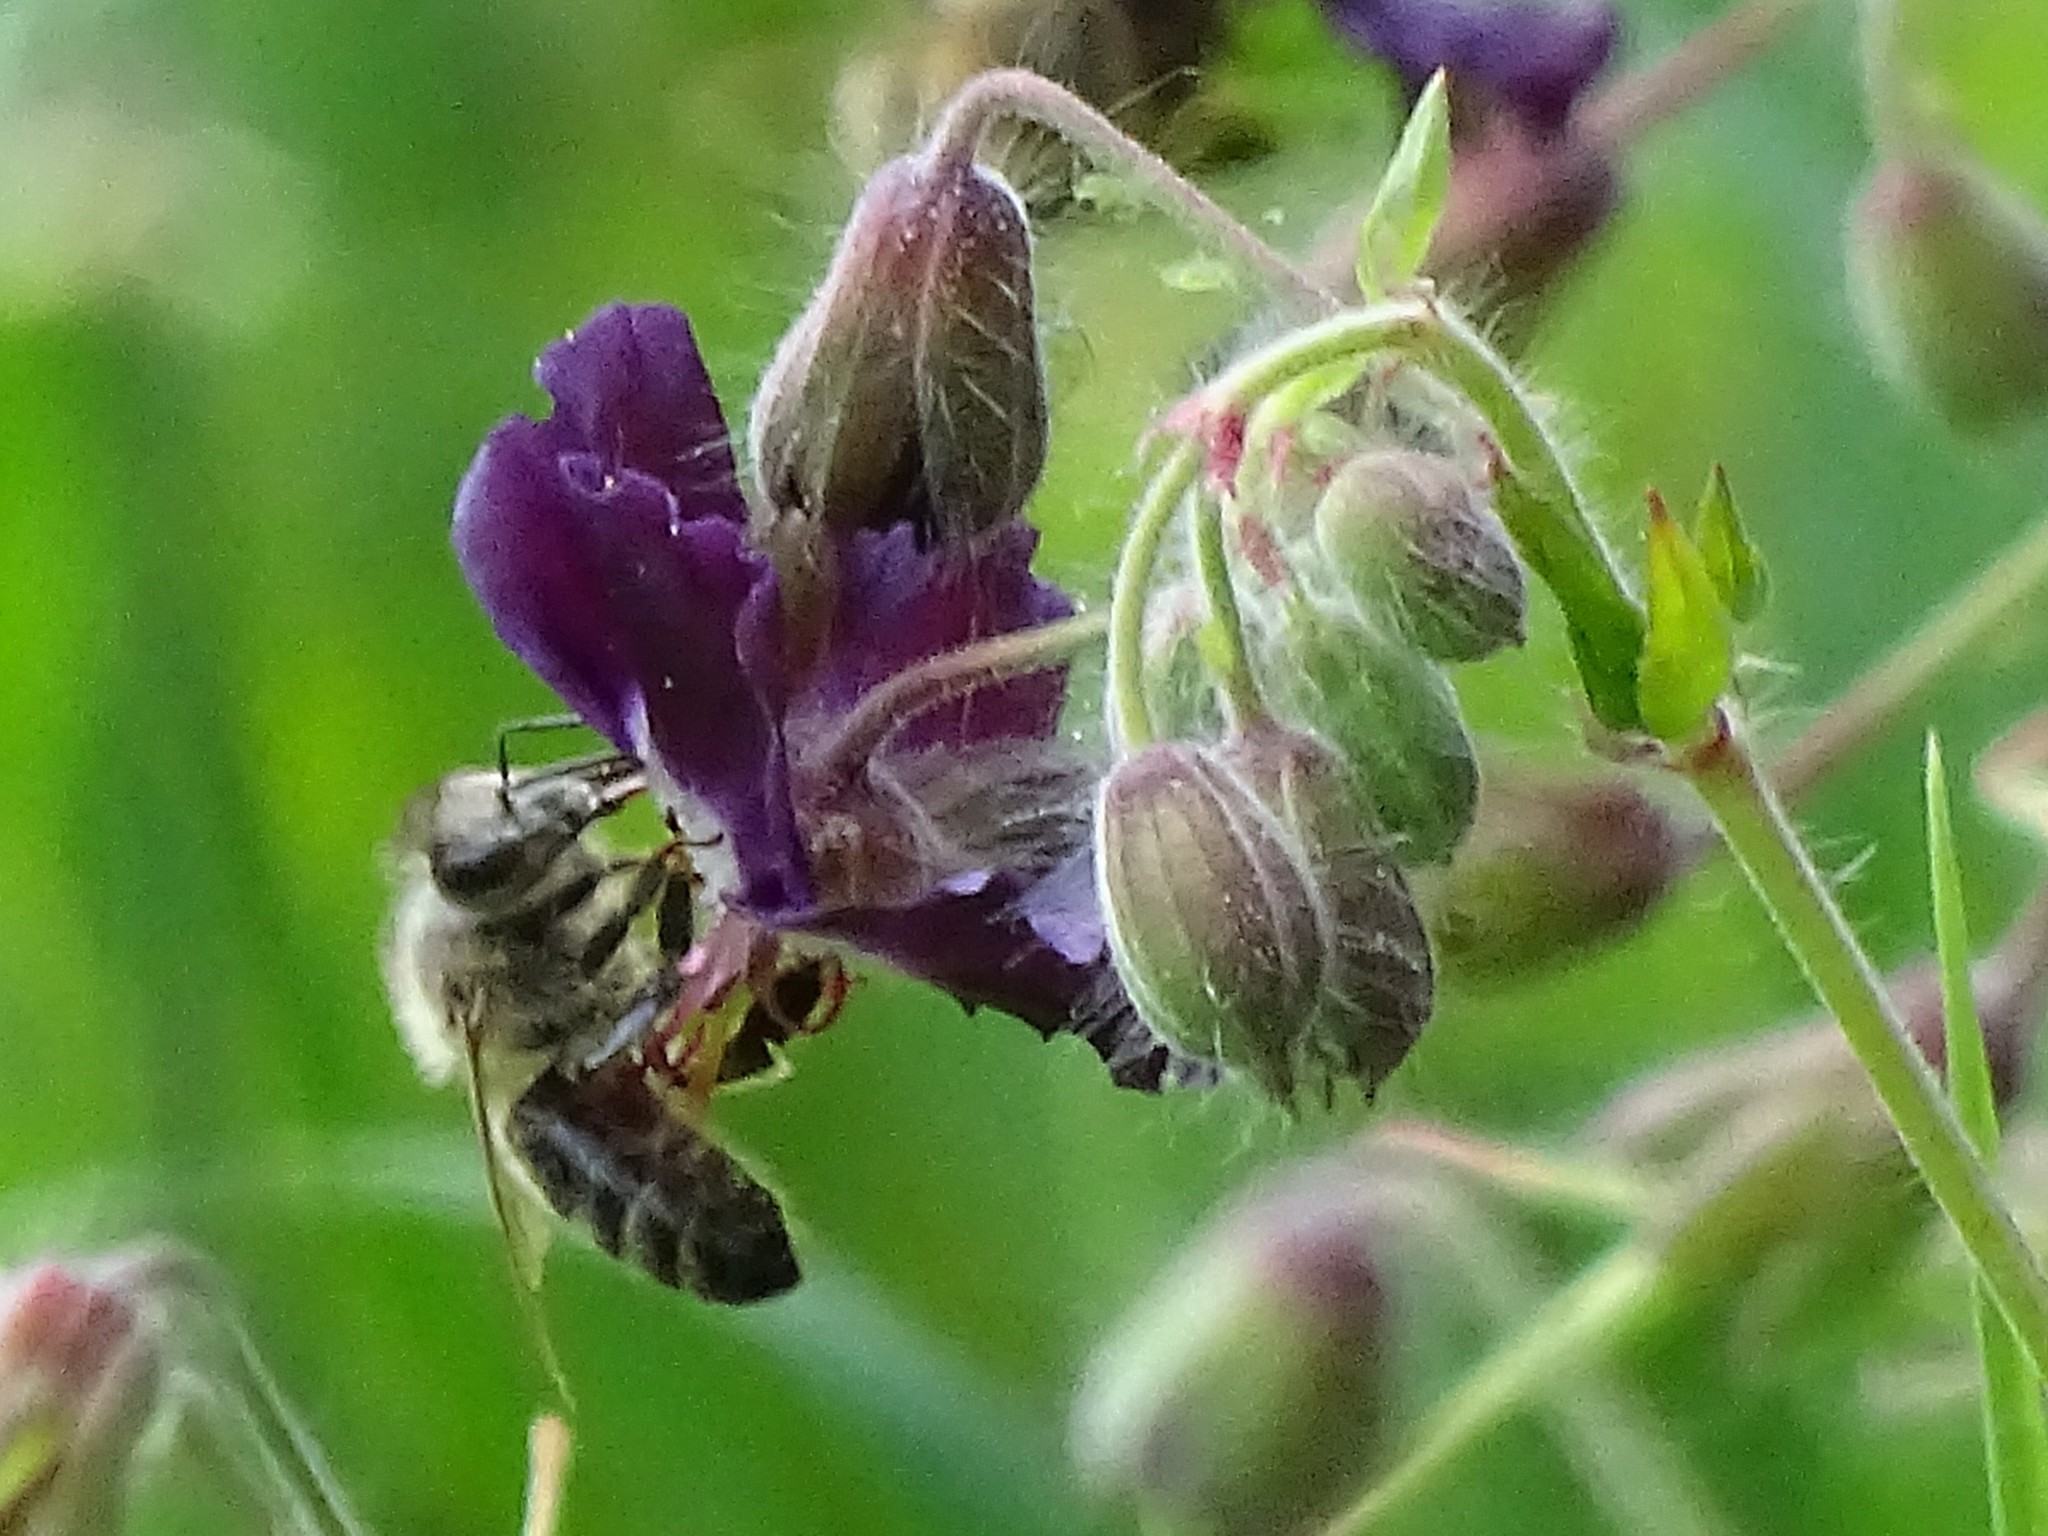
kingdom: Animalia
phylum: Arthropoda
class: Insecta
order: Hymenoptera
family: Apidae
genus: Apis
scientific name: Apis mellifera
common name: Honey bee
